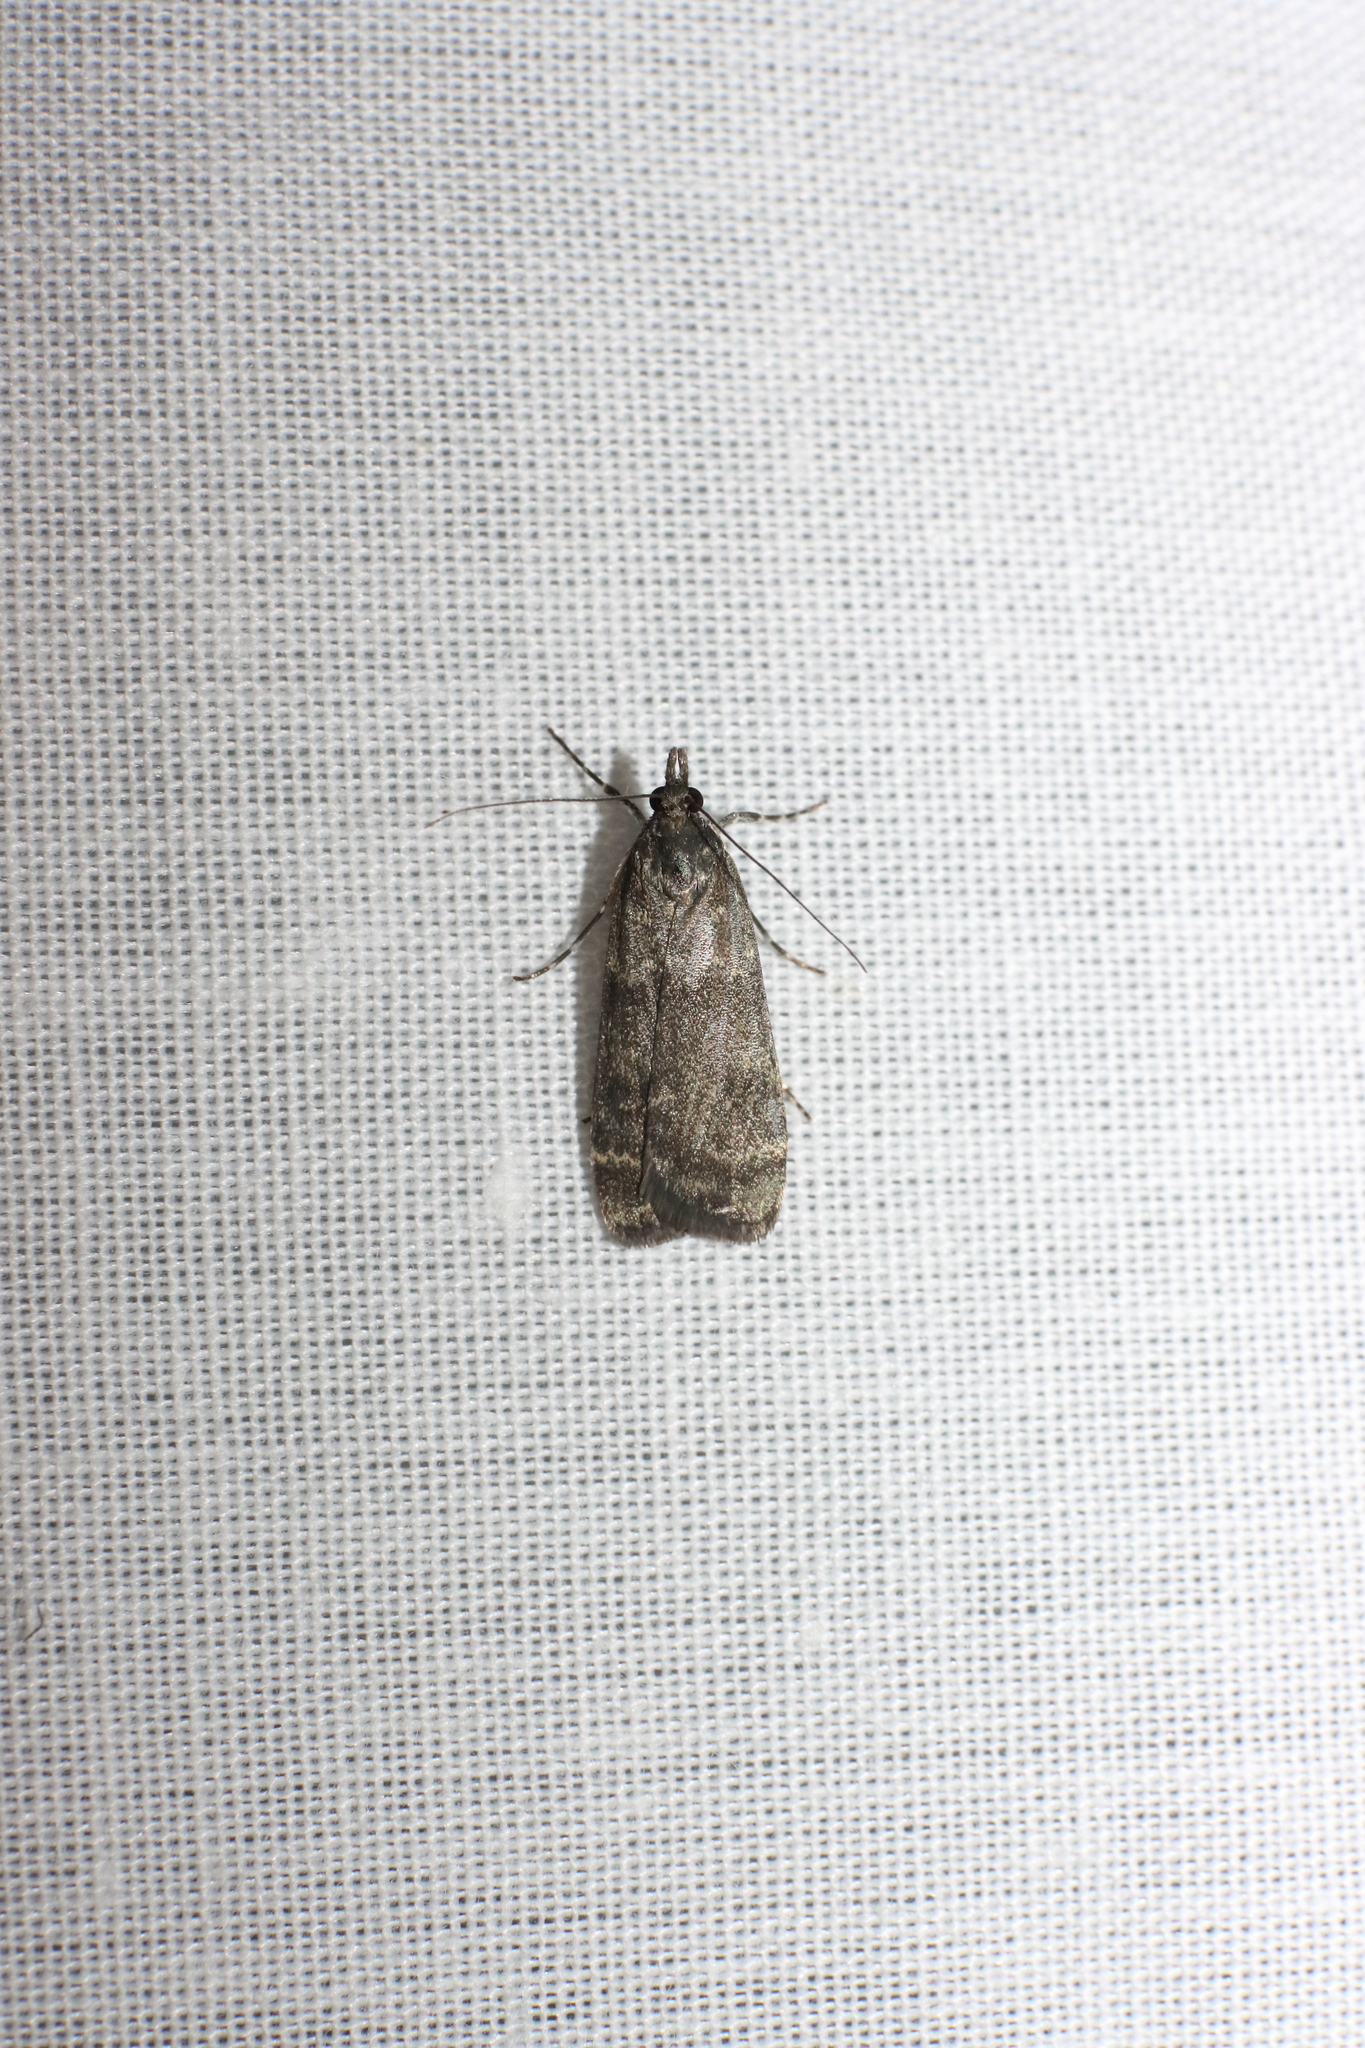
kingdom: Animalia
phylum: Arthropoda
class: Insecta
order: Lepidoptera
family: Crambidae
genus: Eudonia
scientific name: Eudonia cataxesta
